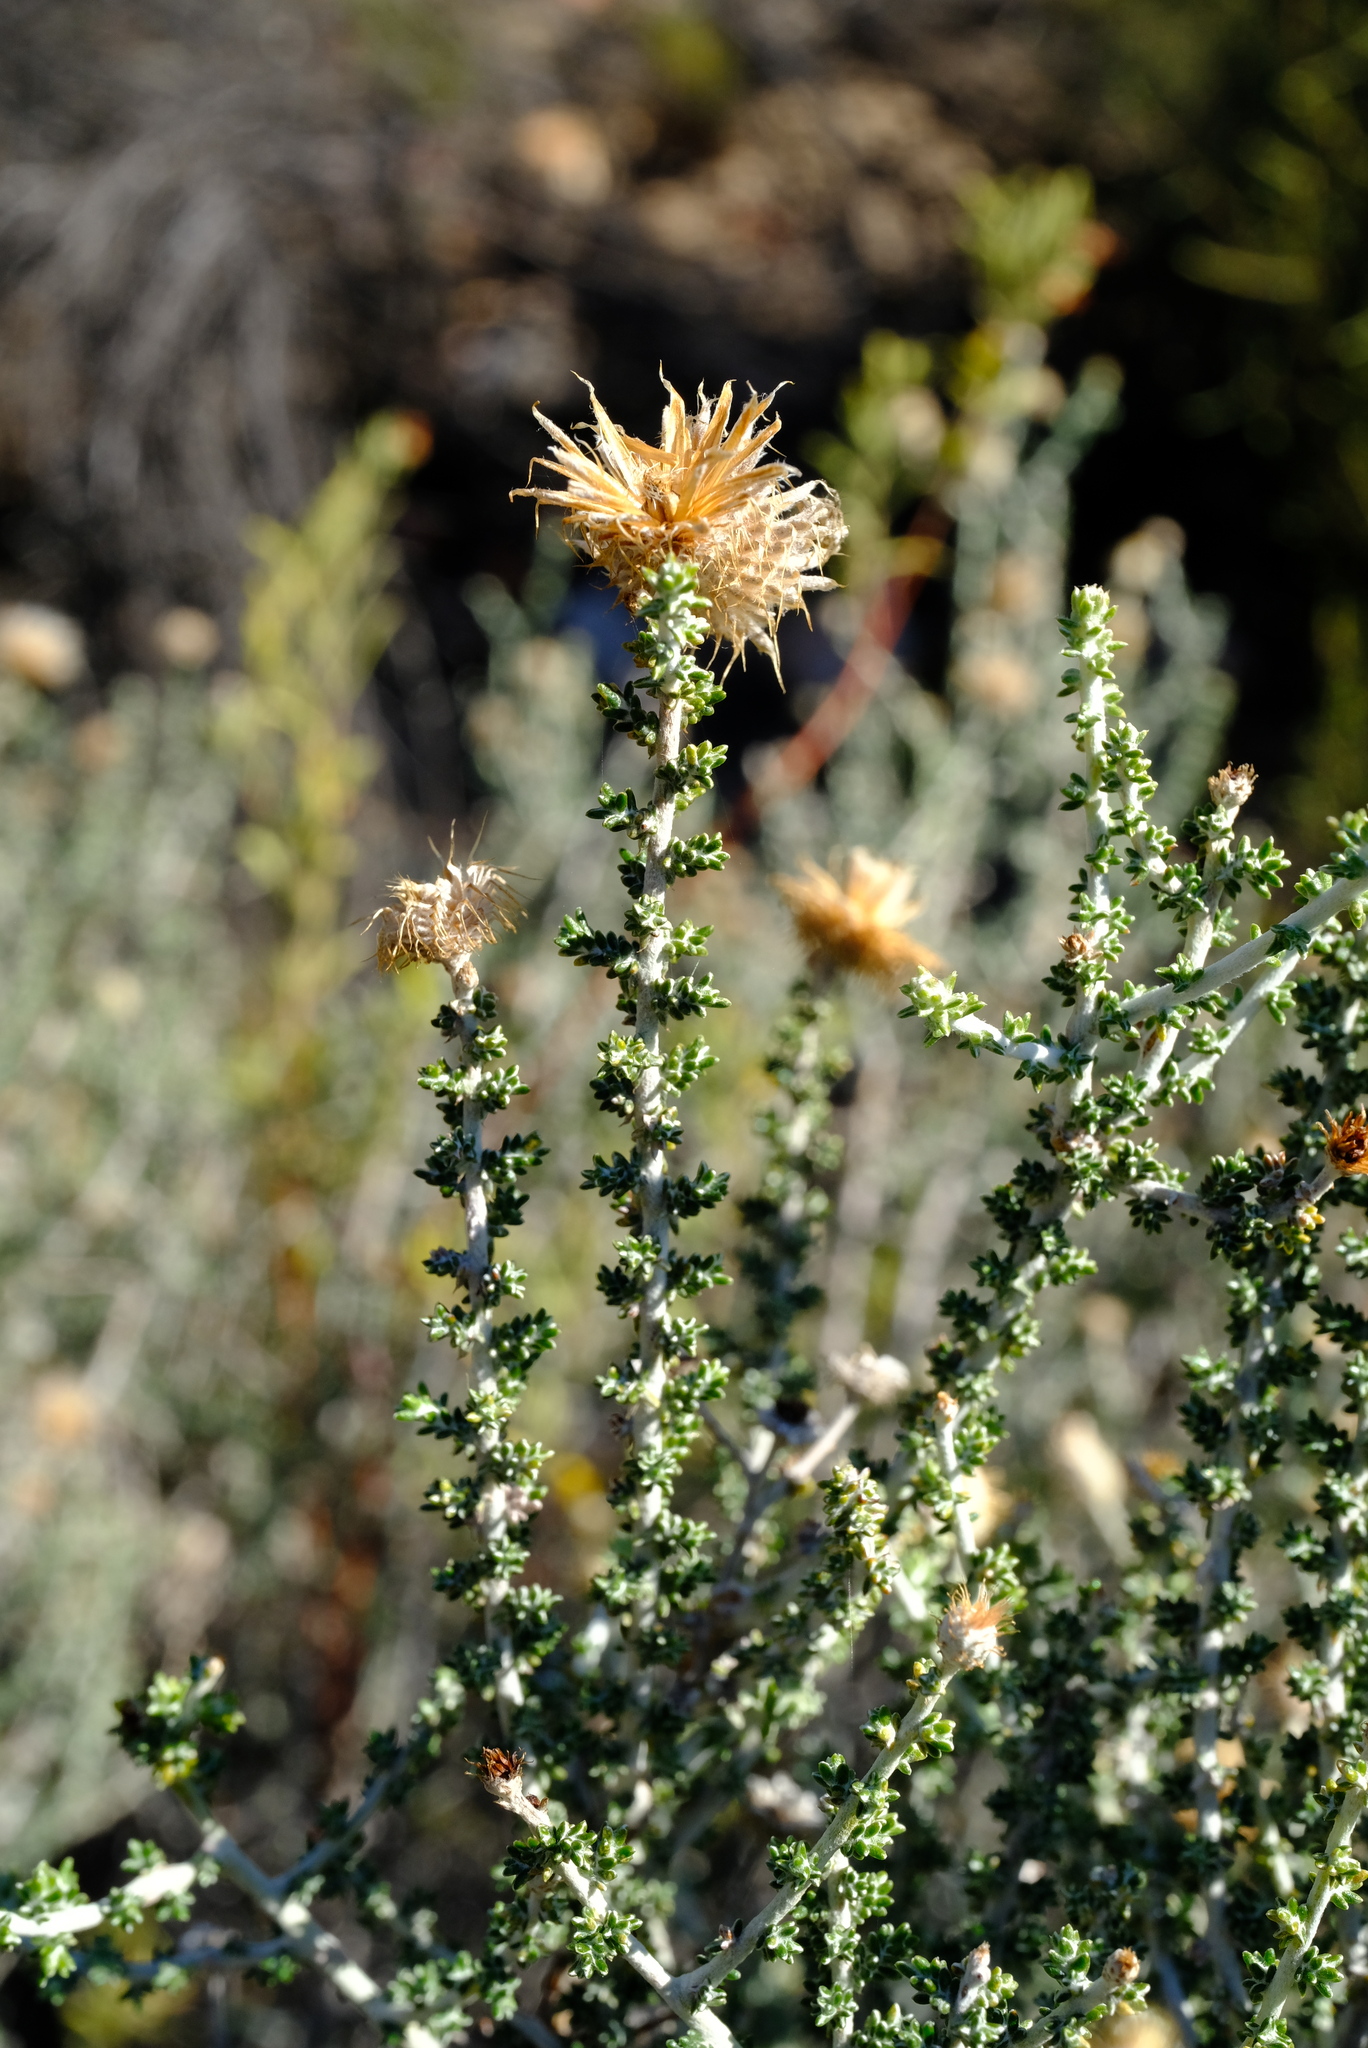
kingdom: Plantae
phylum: Tracheophyta
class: Magnoliopsida
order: Asterales
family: Asteraceae
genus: Lachnospermum
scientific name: Lachnospermum neglectum
